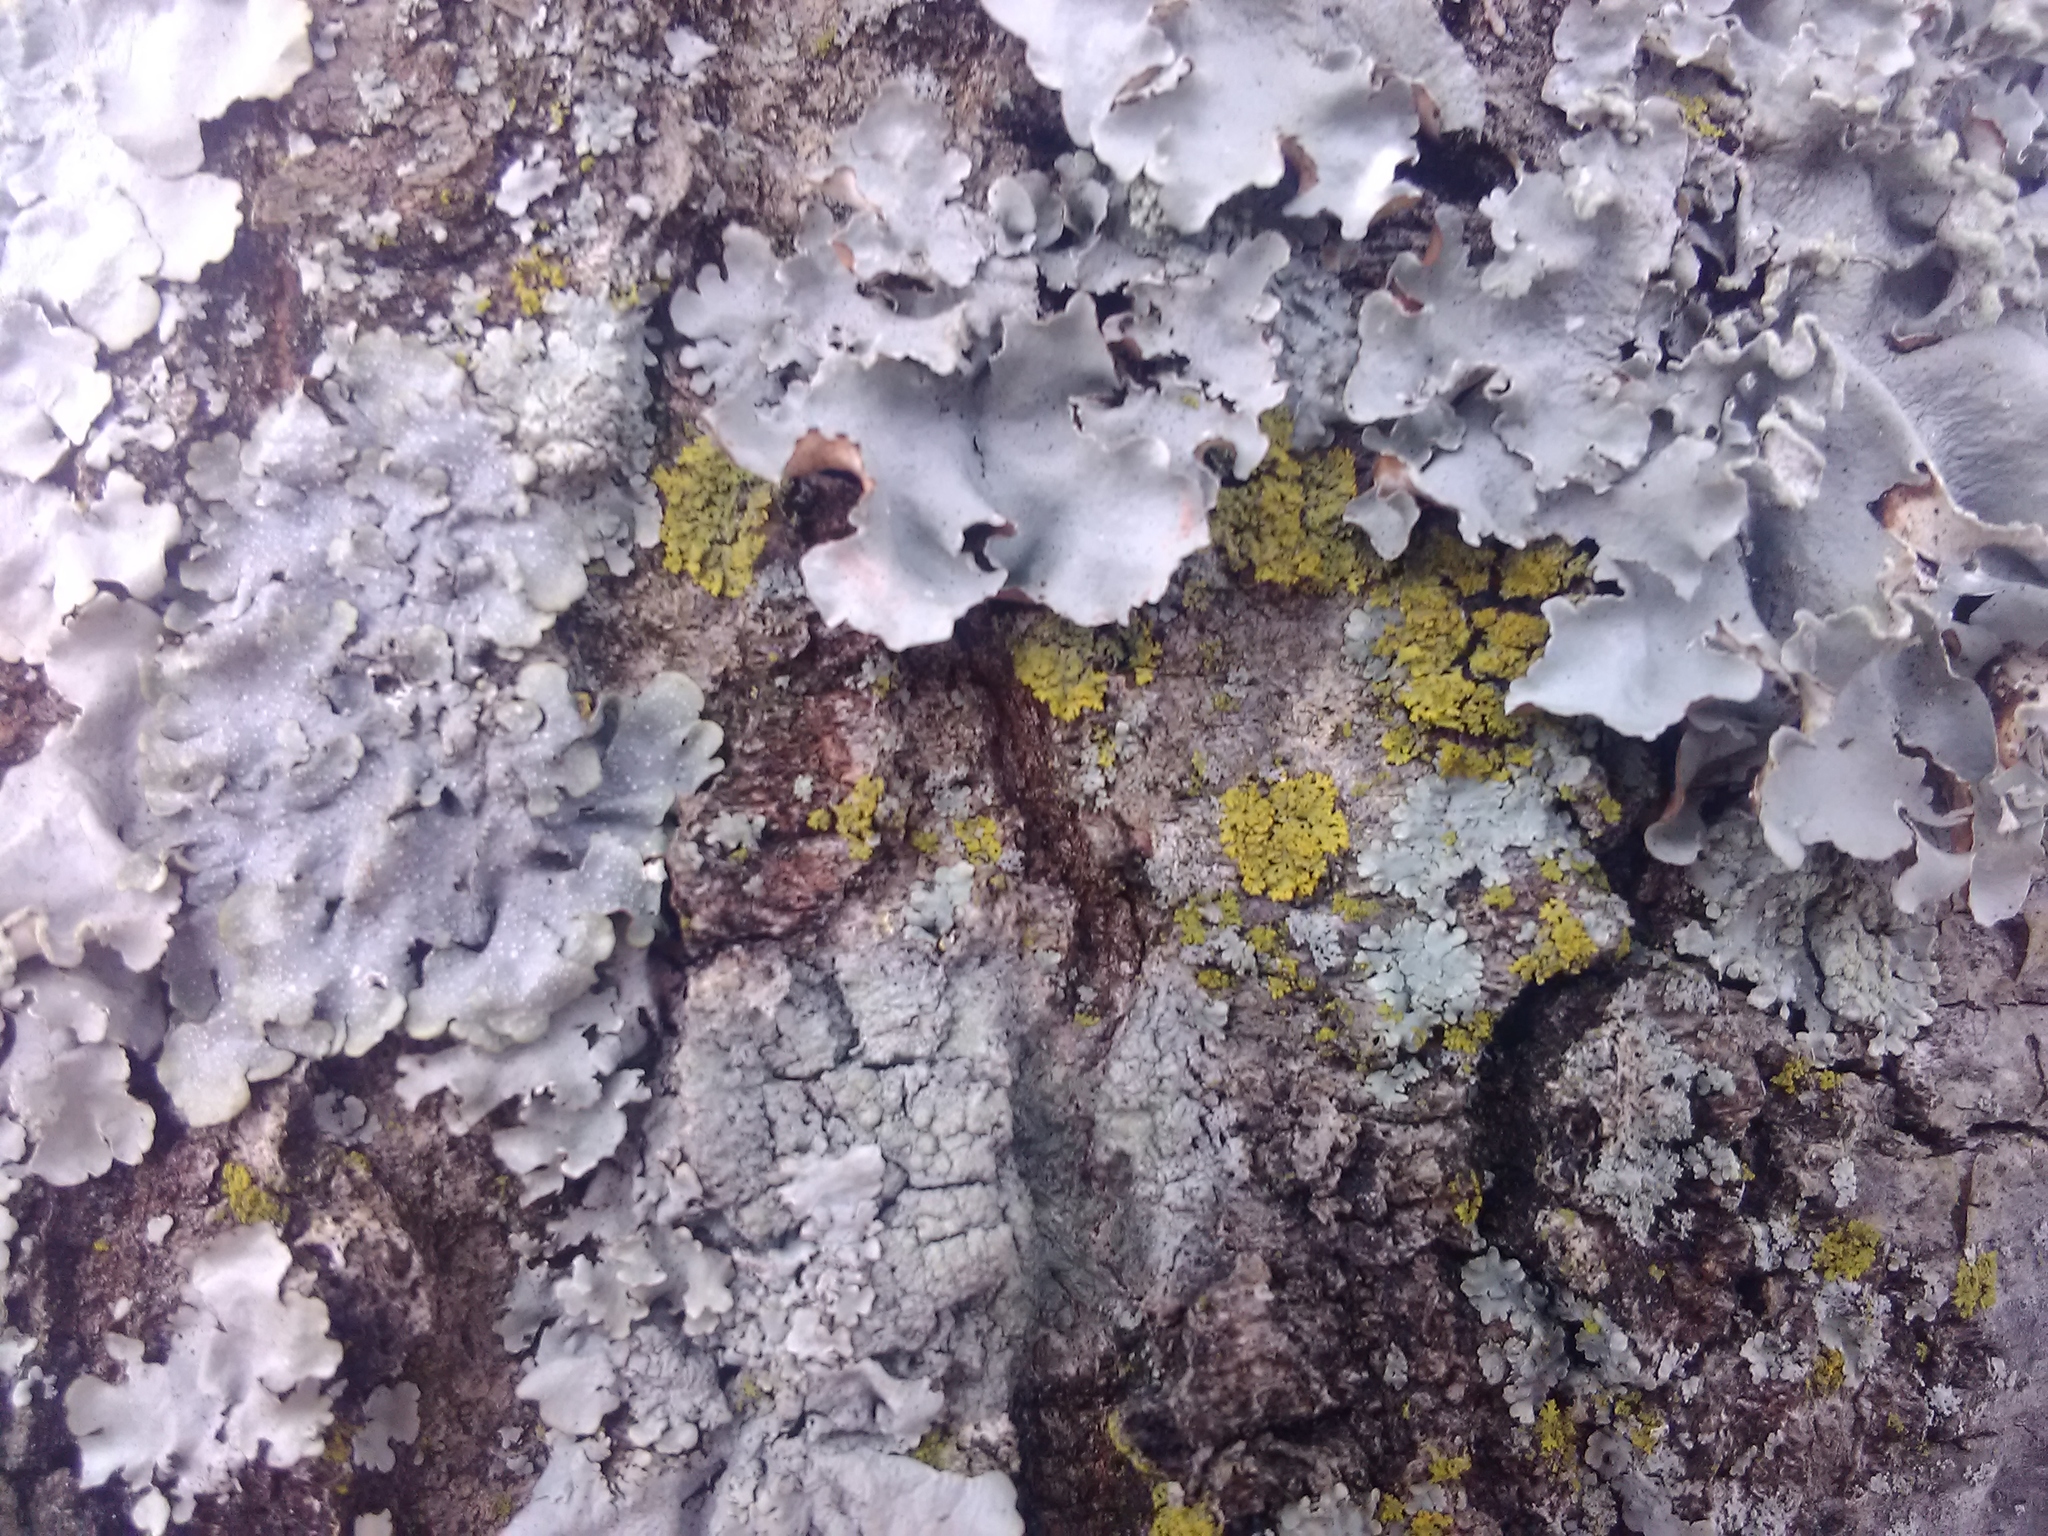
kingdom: Fungi
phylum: Ascomycota
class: Candelariomycetes
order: Candelariales
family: Candelariaceae
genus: Candelaria
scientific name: Candelaria concolor
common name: Candleflame lichen
